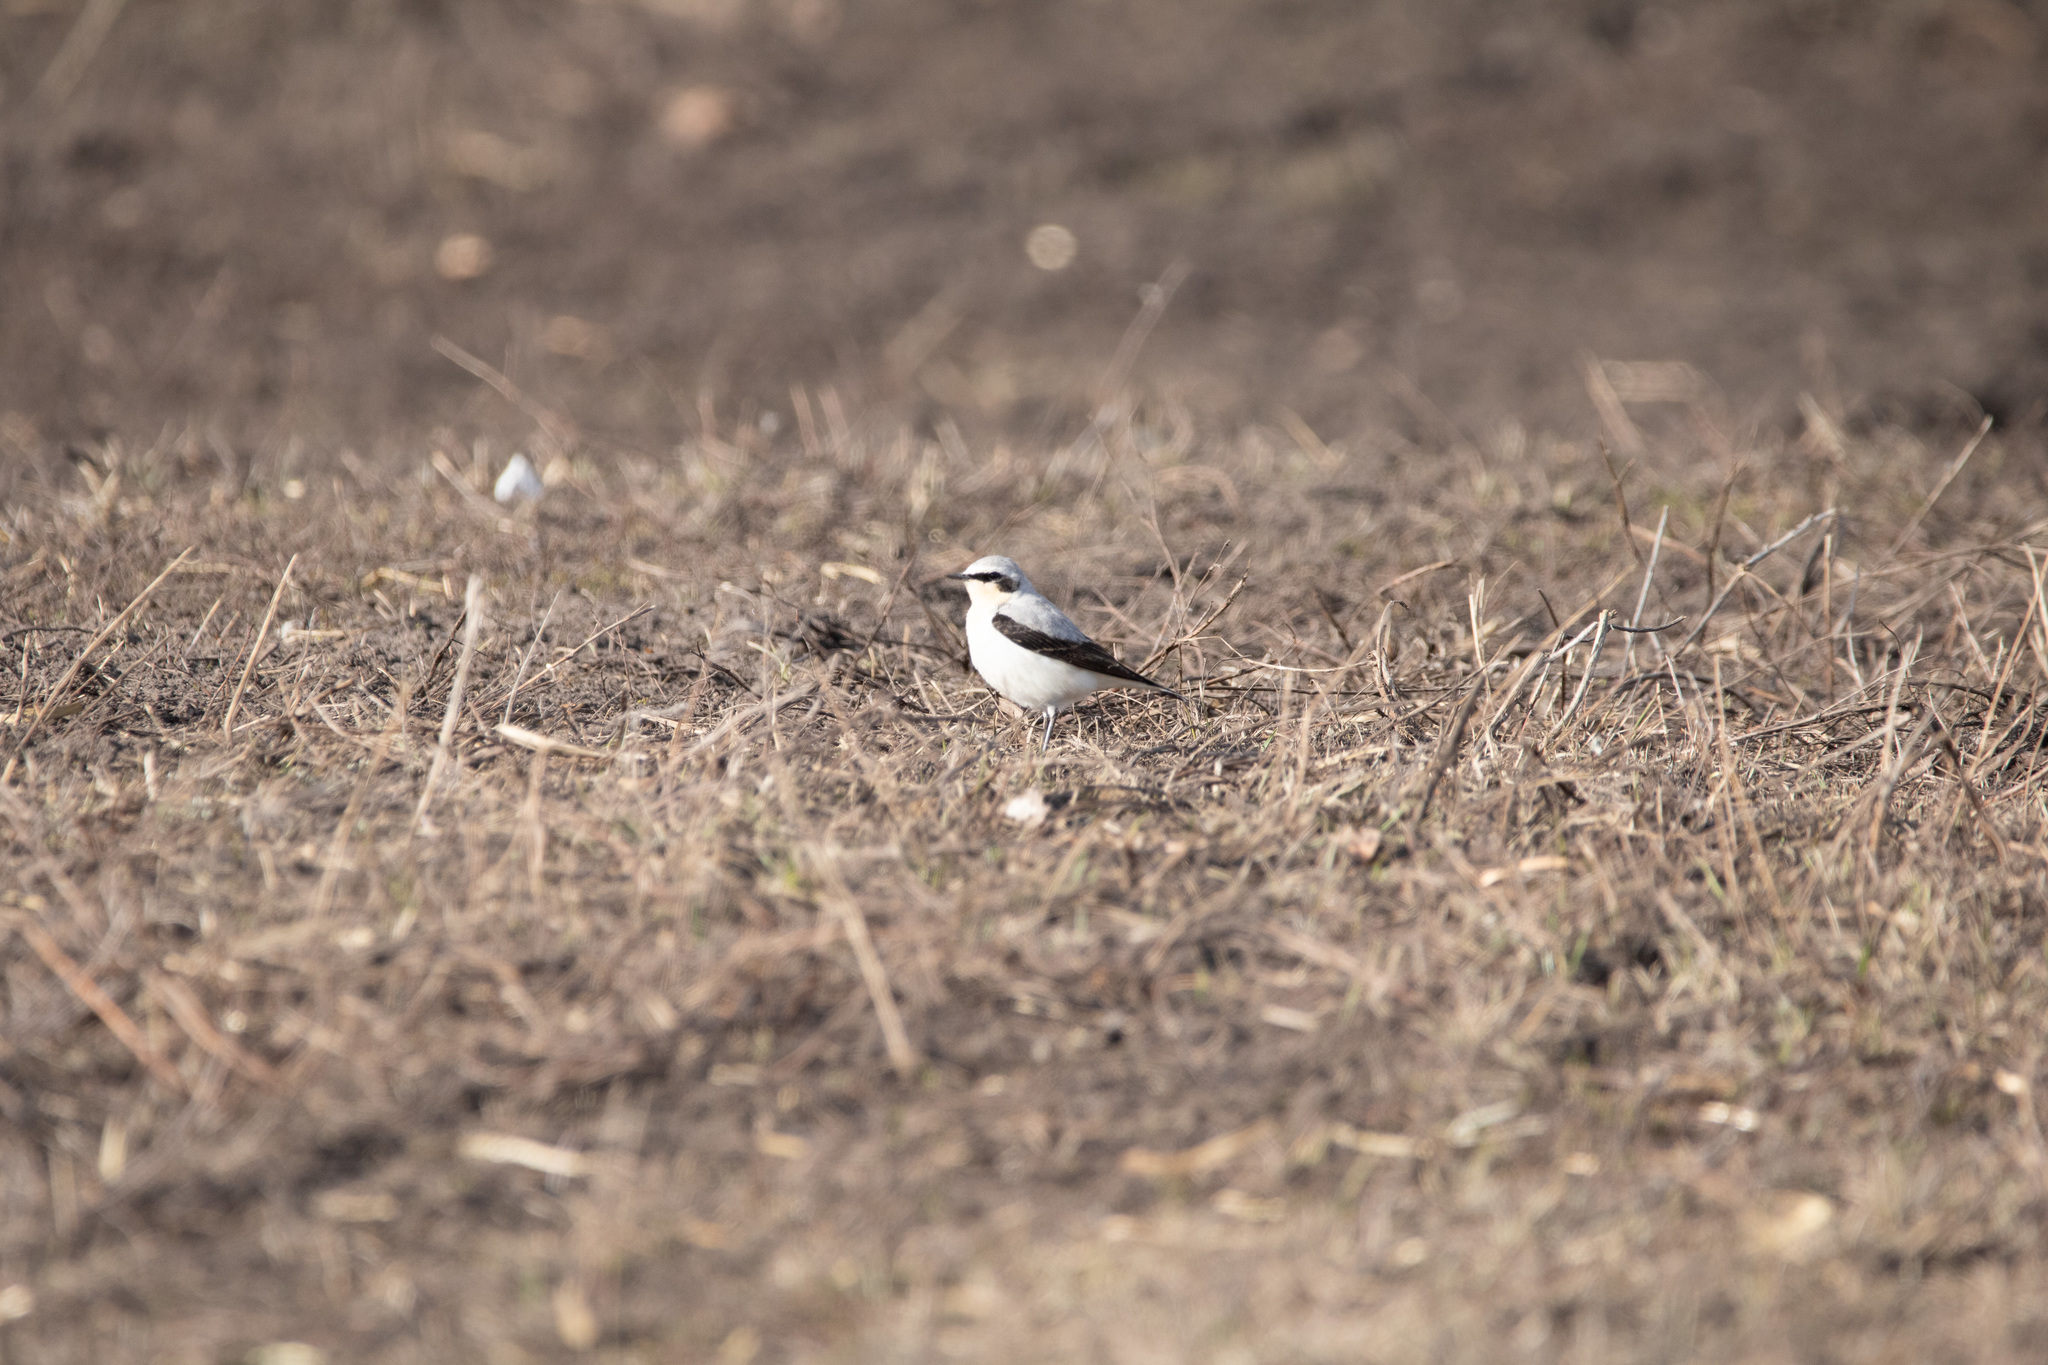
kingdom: Animalia
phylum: Chordata
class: Aves
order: Passeriformes
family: Muscicapidae
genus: Oenanthe
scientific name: Oenanthe oenanthe
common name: Northern wheatear
